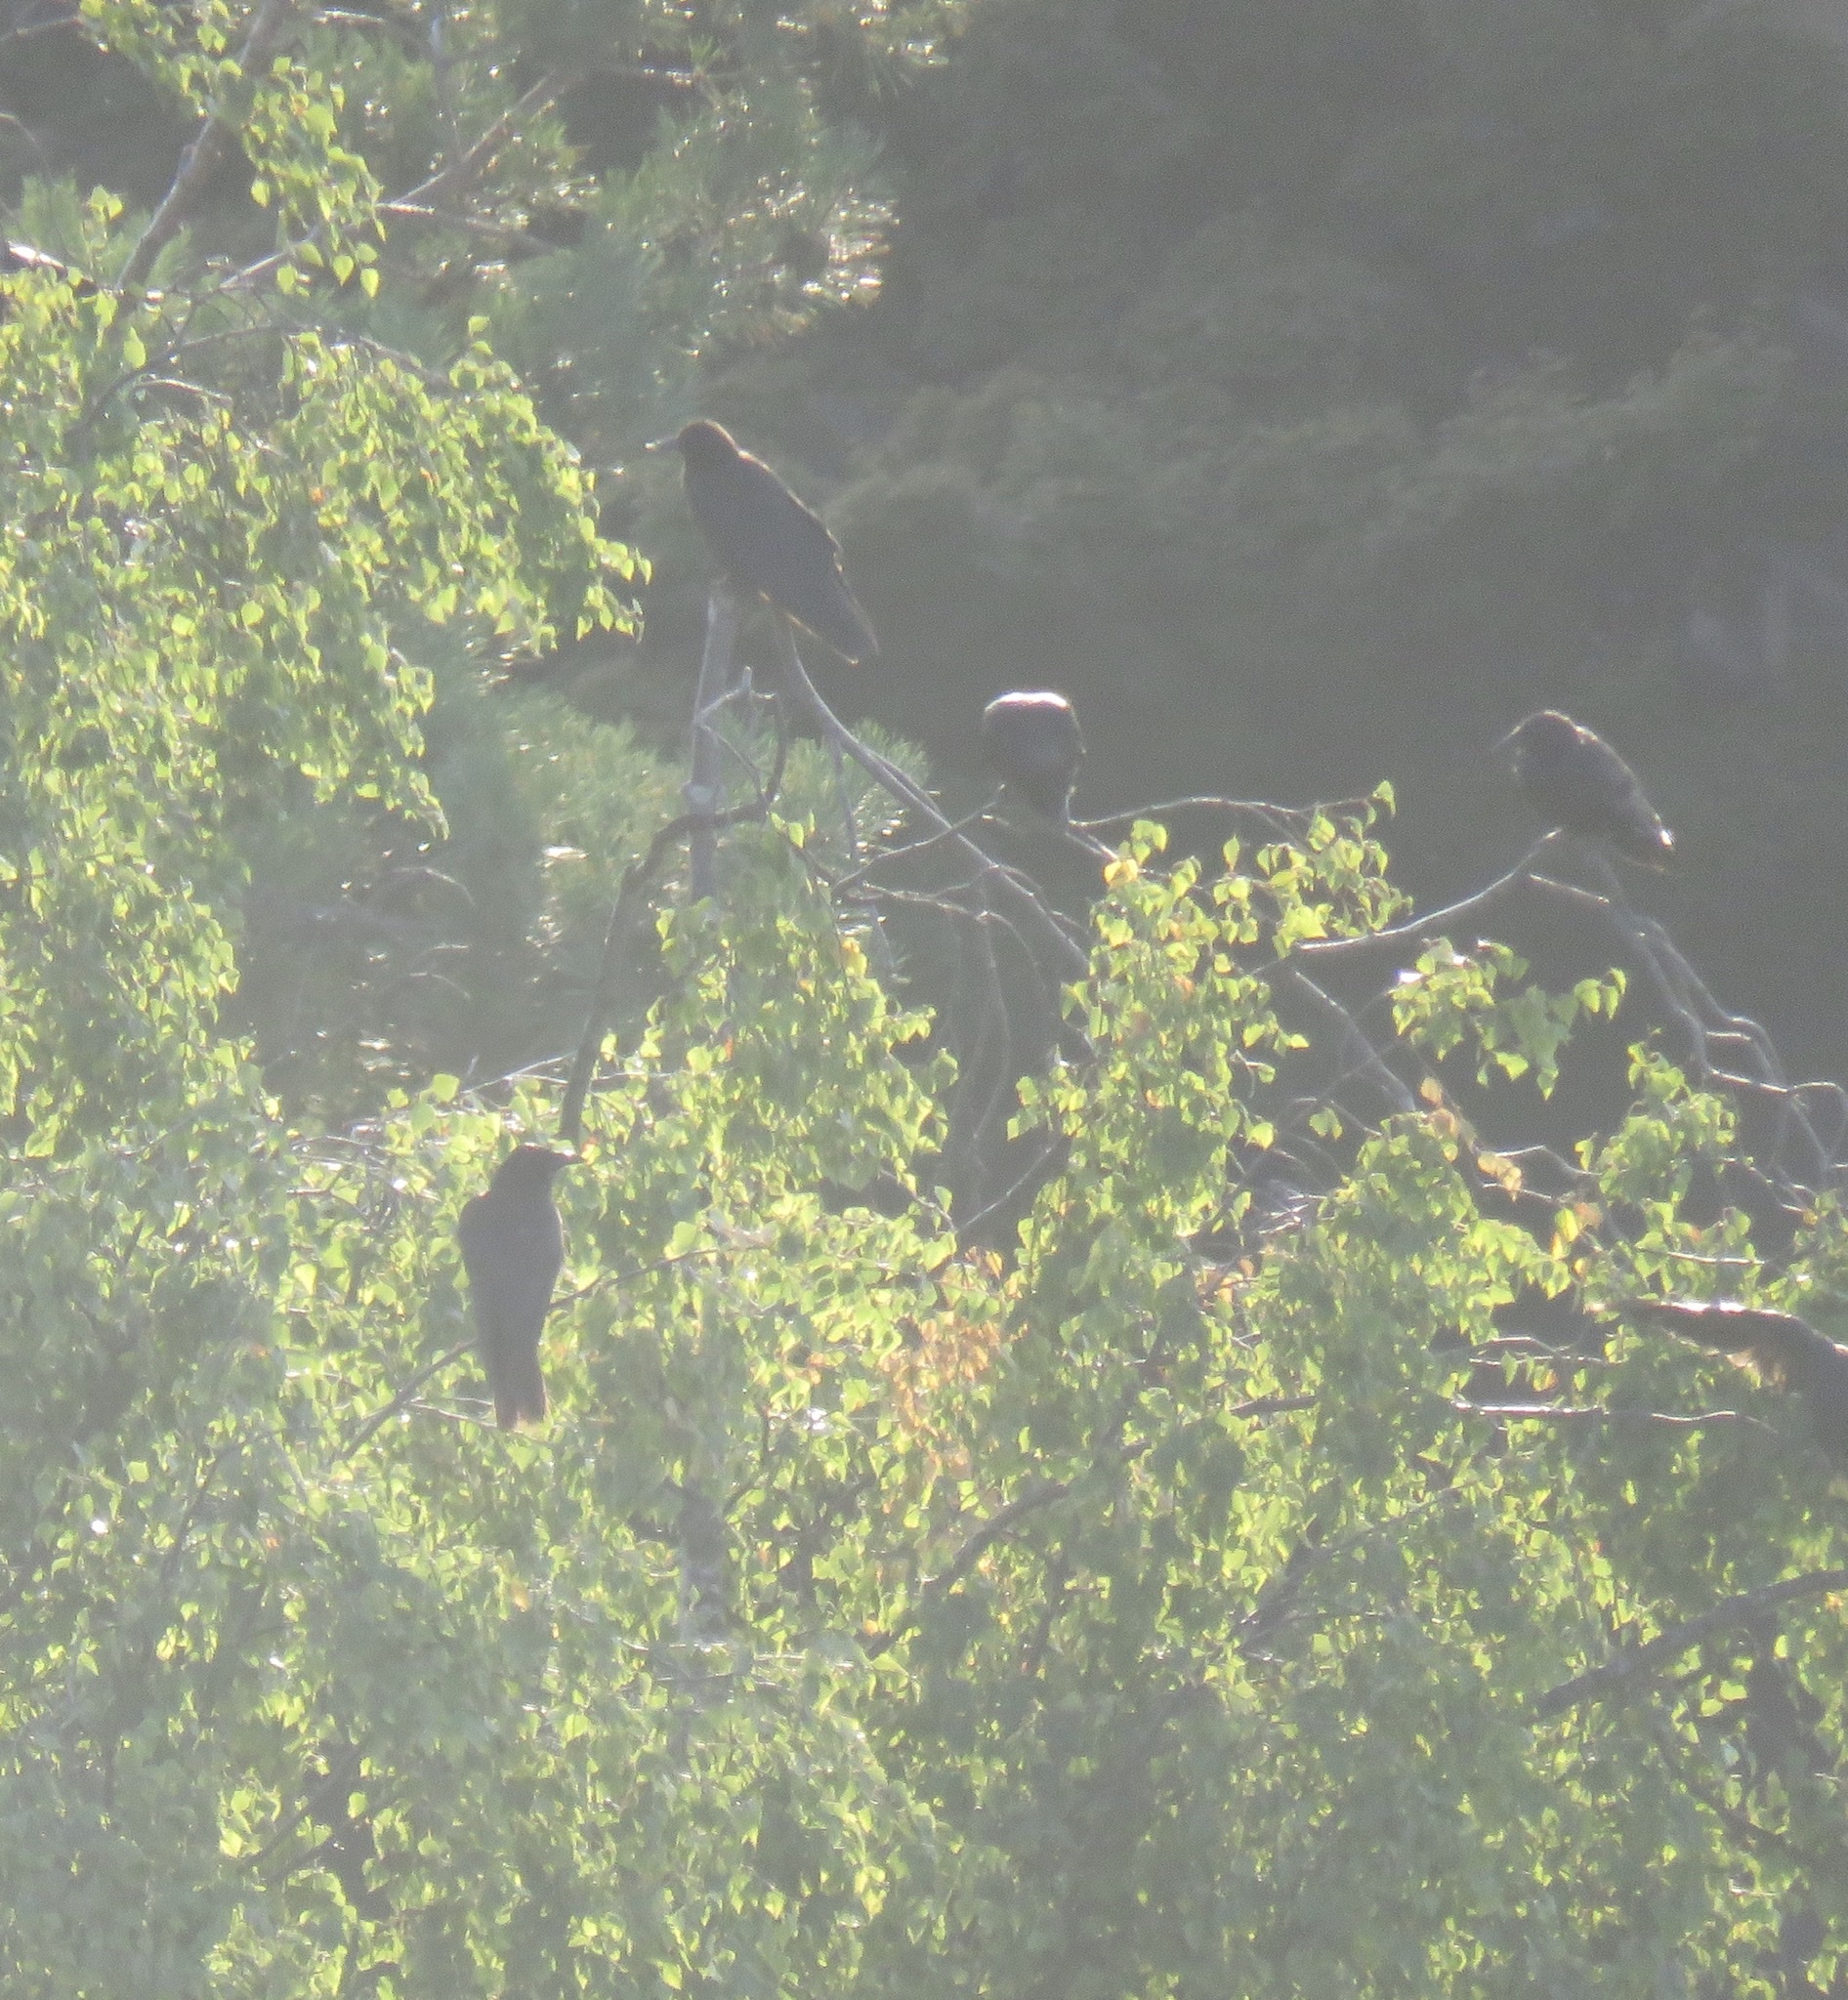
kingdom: Animalia
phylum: Chordata
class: Aves
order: Passeriformes
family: Corvidae
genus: Corvus
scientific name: Corvus brachyrhynchos
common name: American crow
